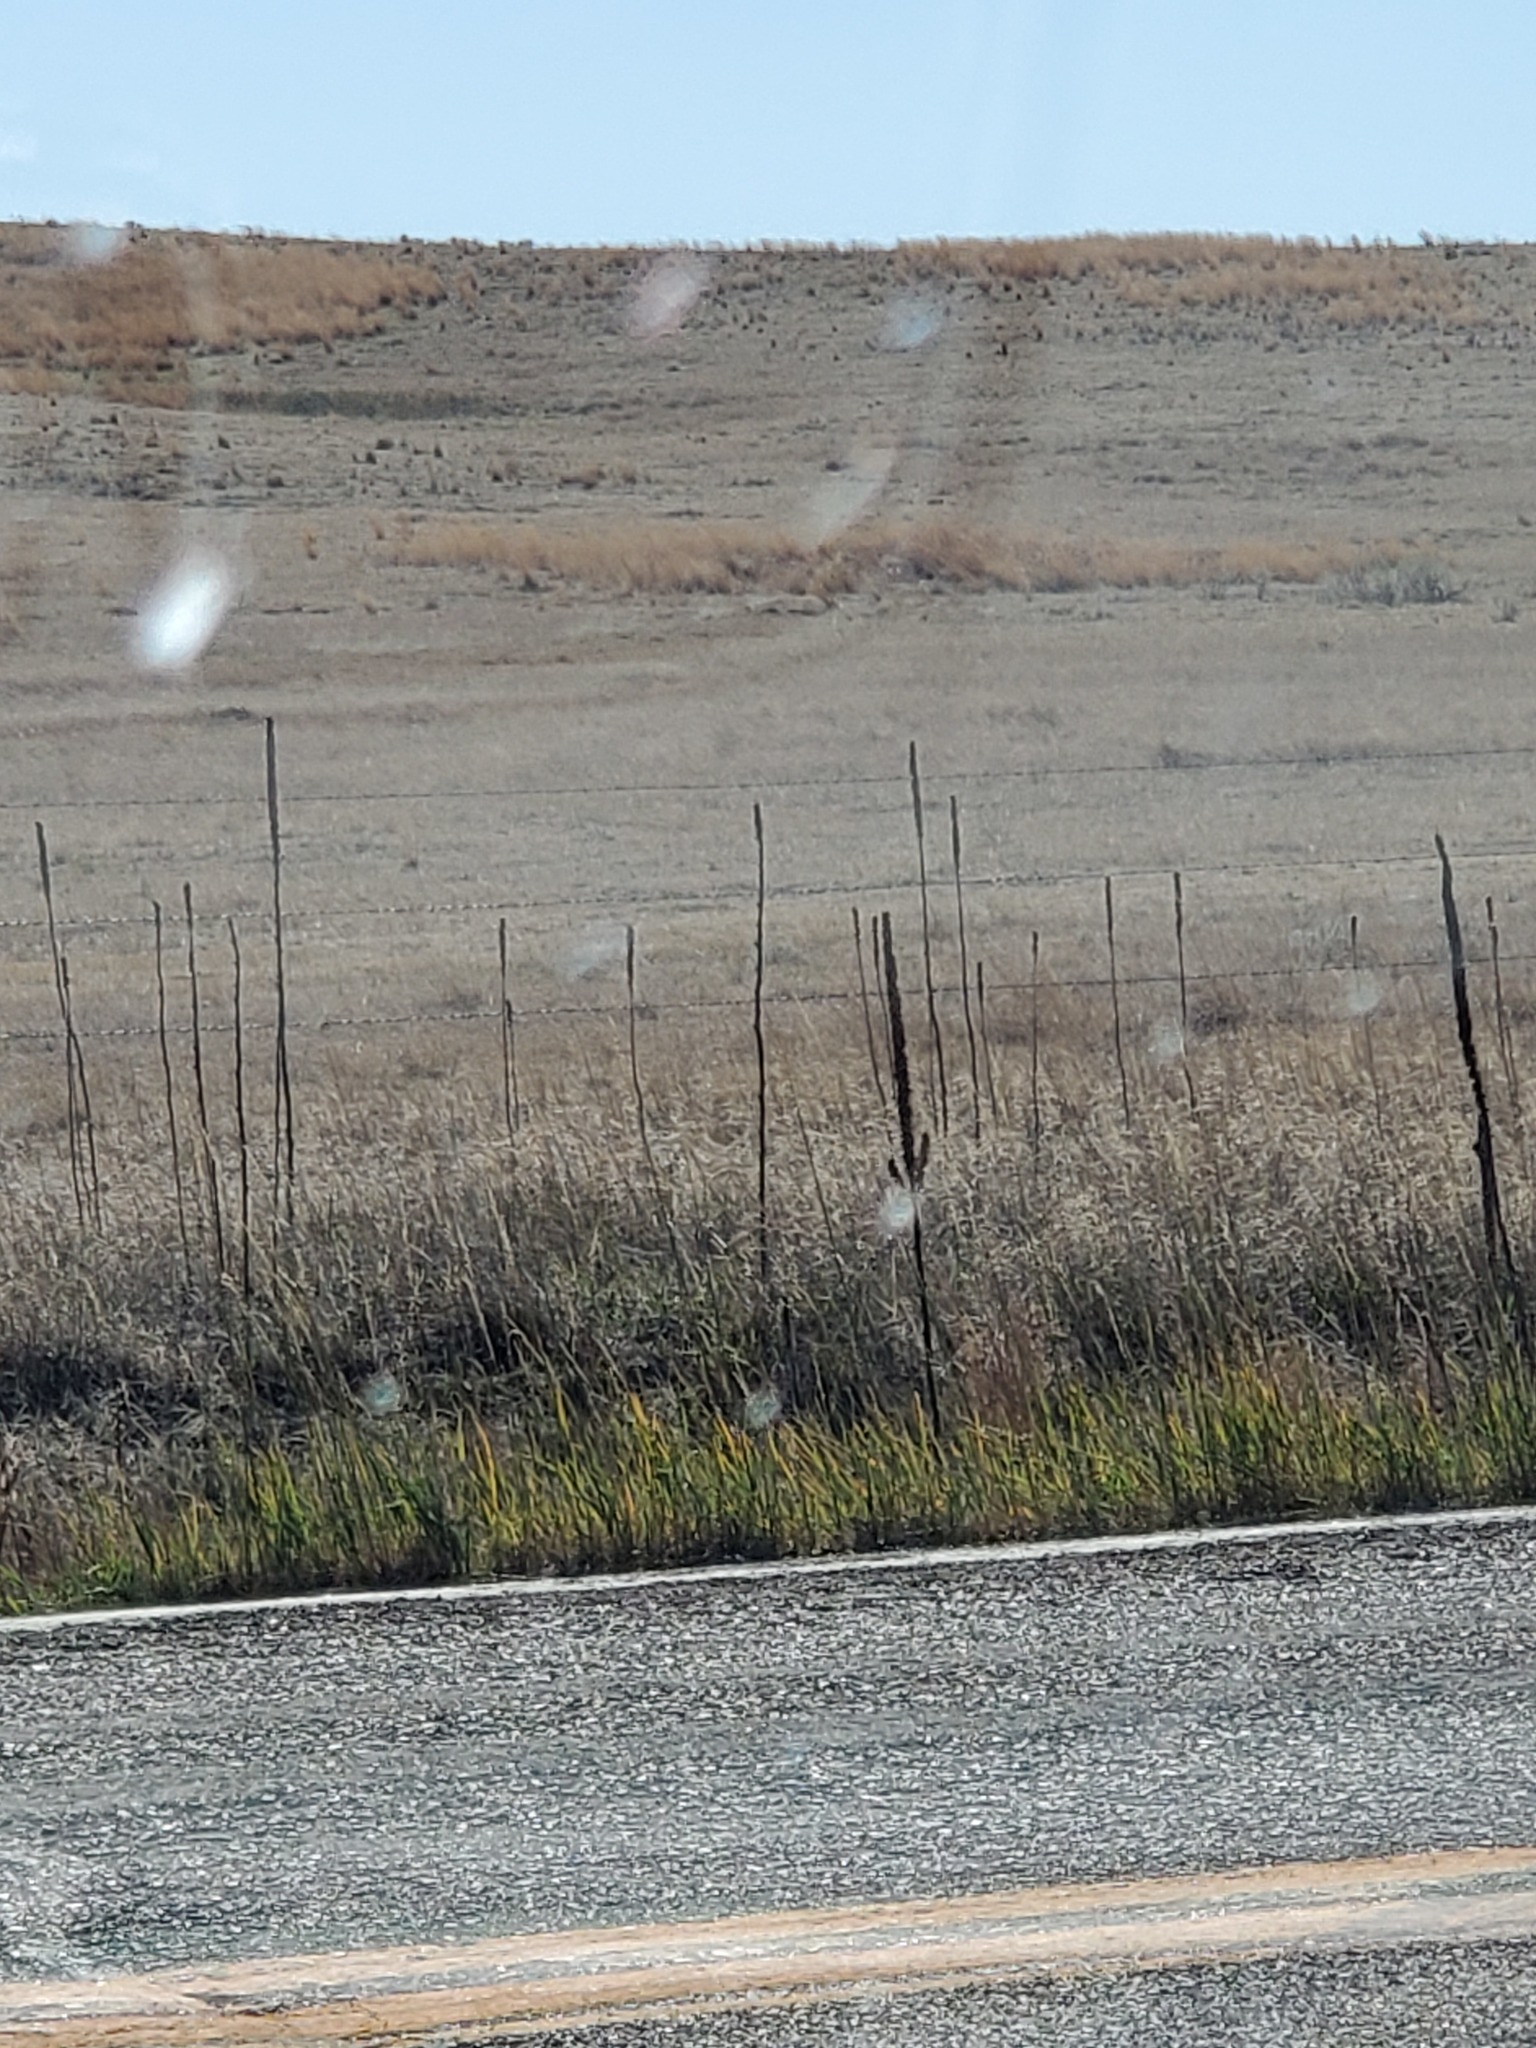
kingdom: Plantae
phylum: Tracheophyta
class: Magnoliopsida
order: Lamiales
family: Scrophulariaceae
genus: Verbascum
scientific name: Verbascum thapsus
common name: Common mullein
